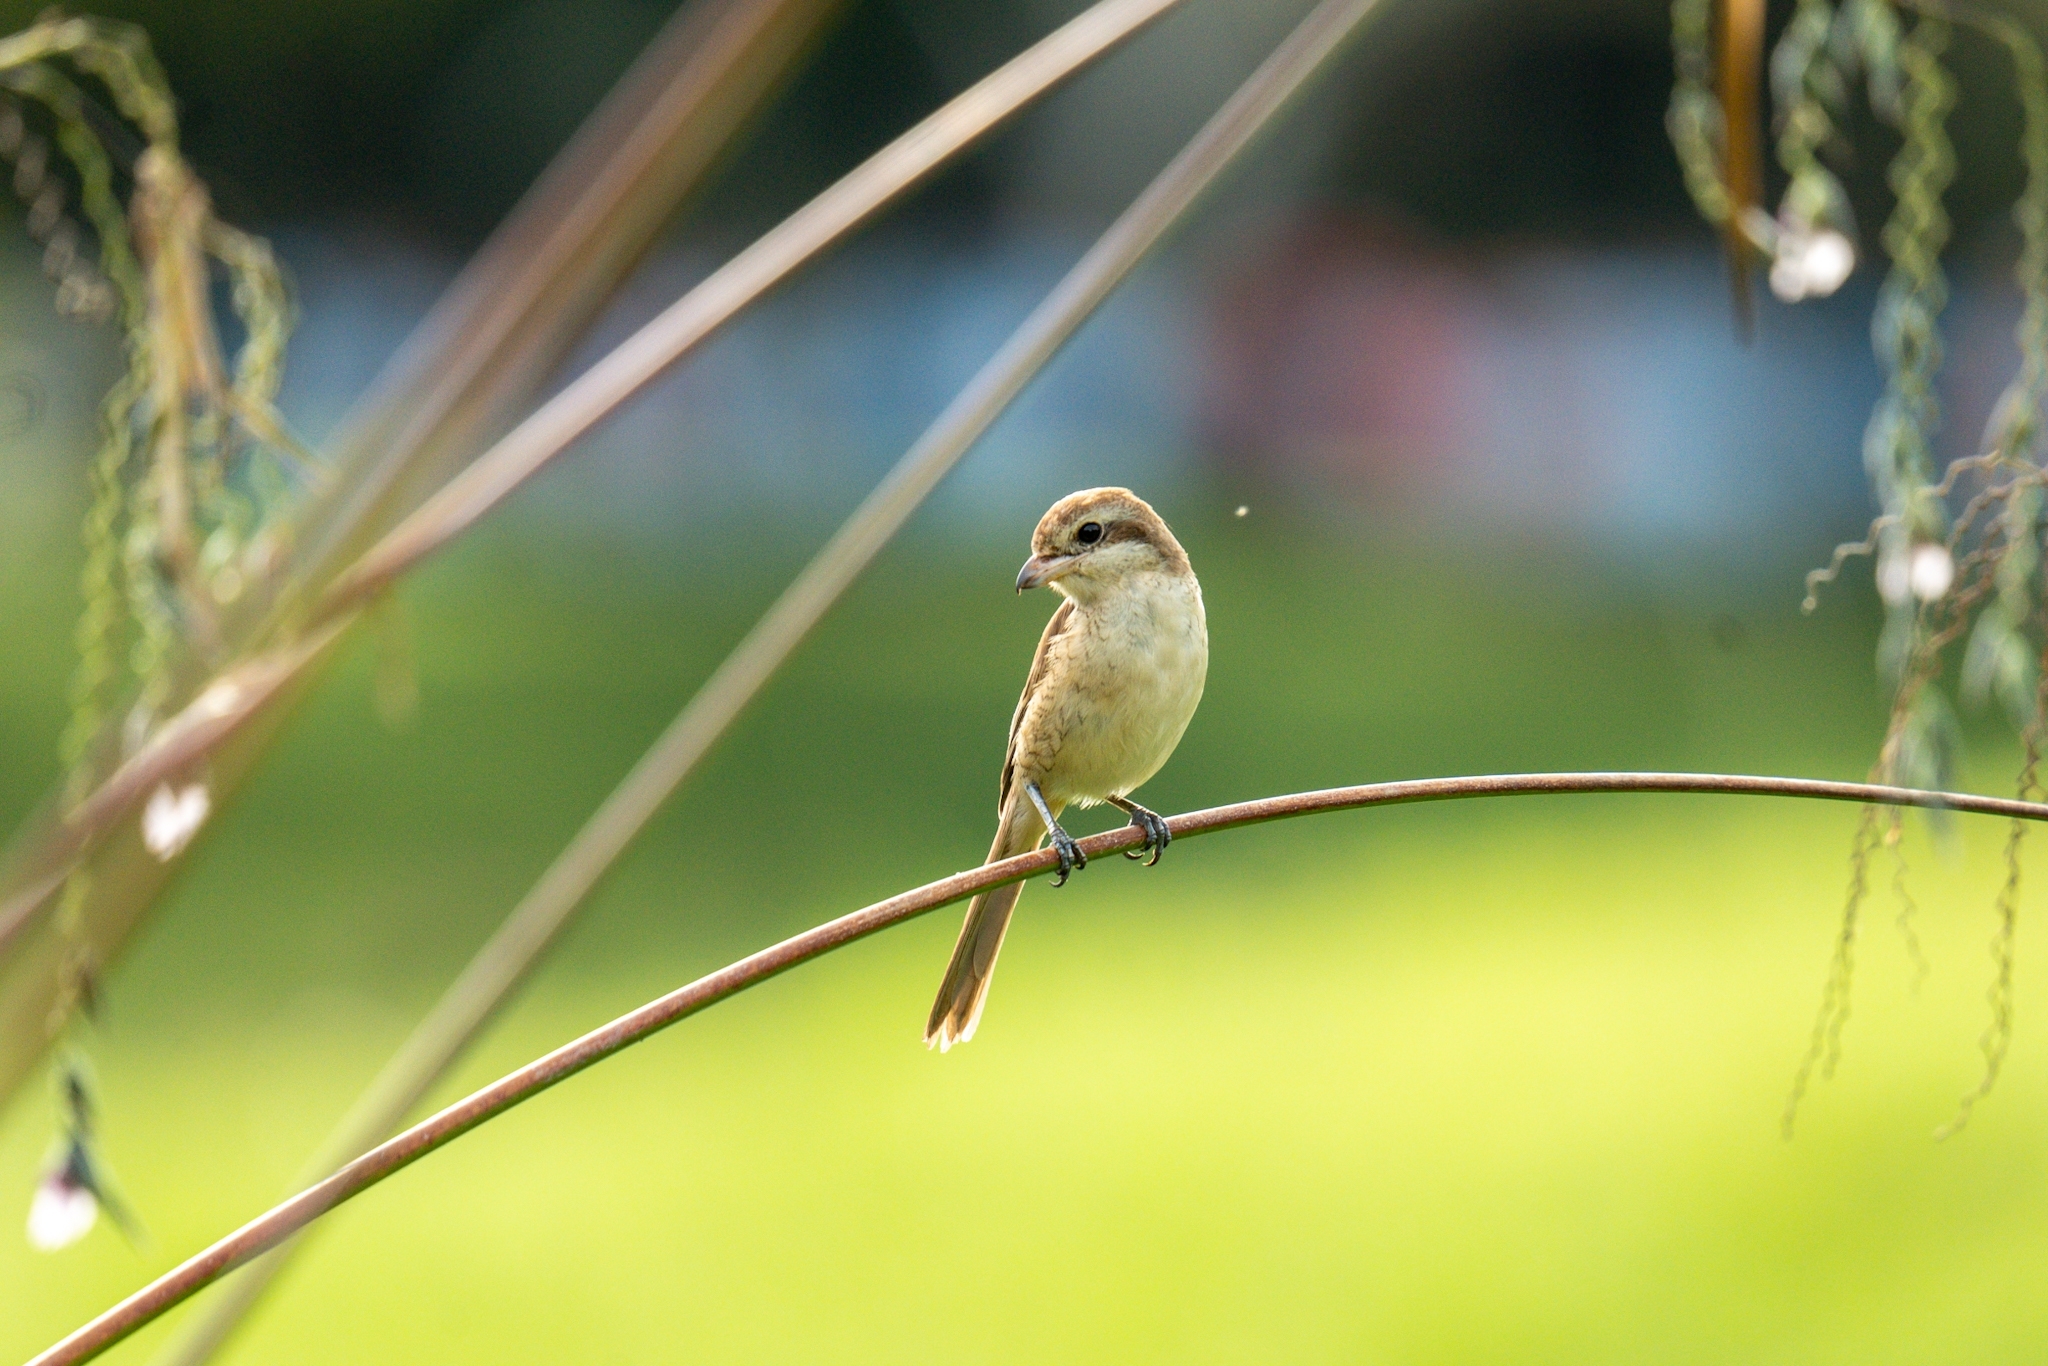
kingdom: Animalia
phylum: Chordata
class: Aves
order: Passeriformes
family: Laniidae
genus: Lanius
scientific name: Lanius cristatus
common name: Brown shrike
